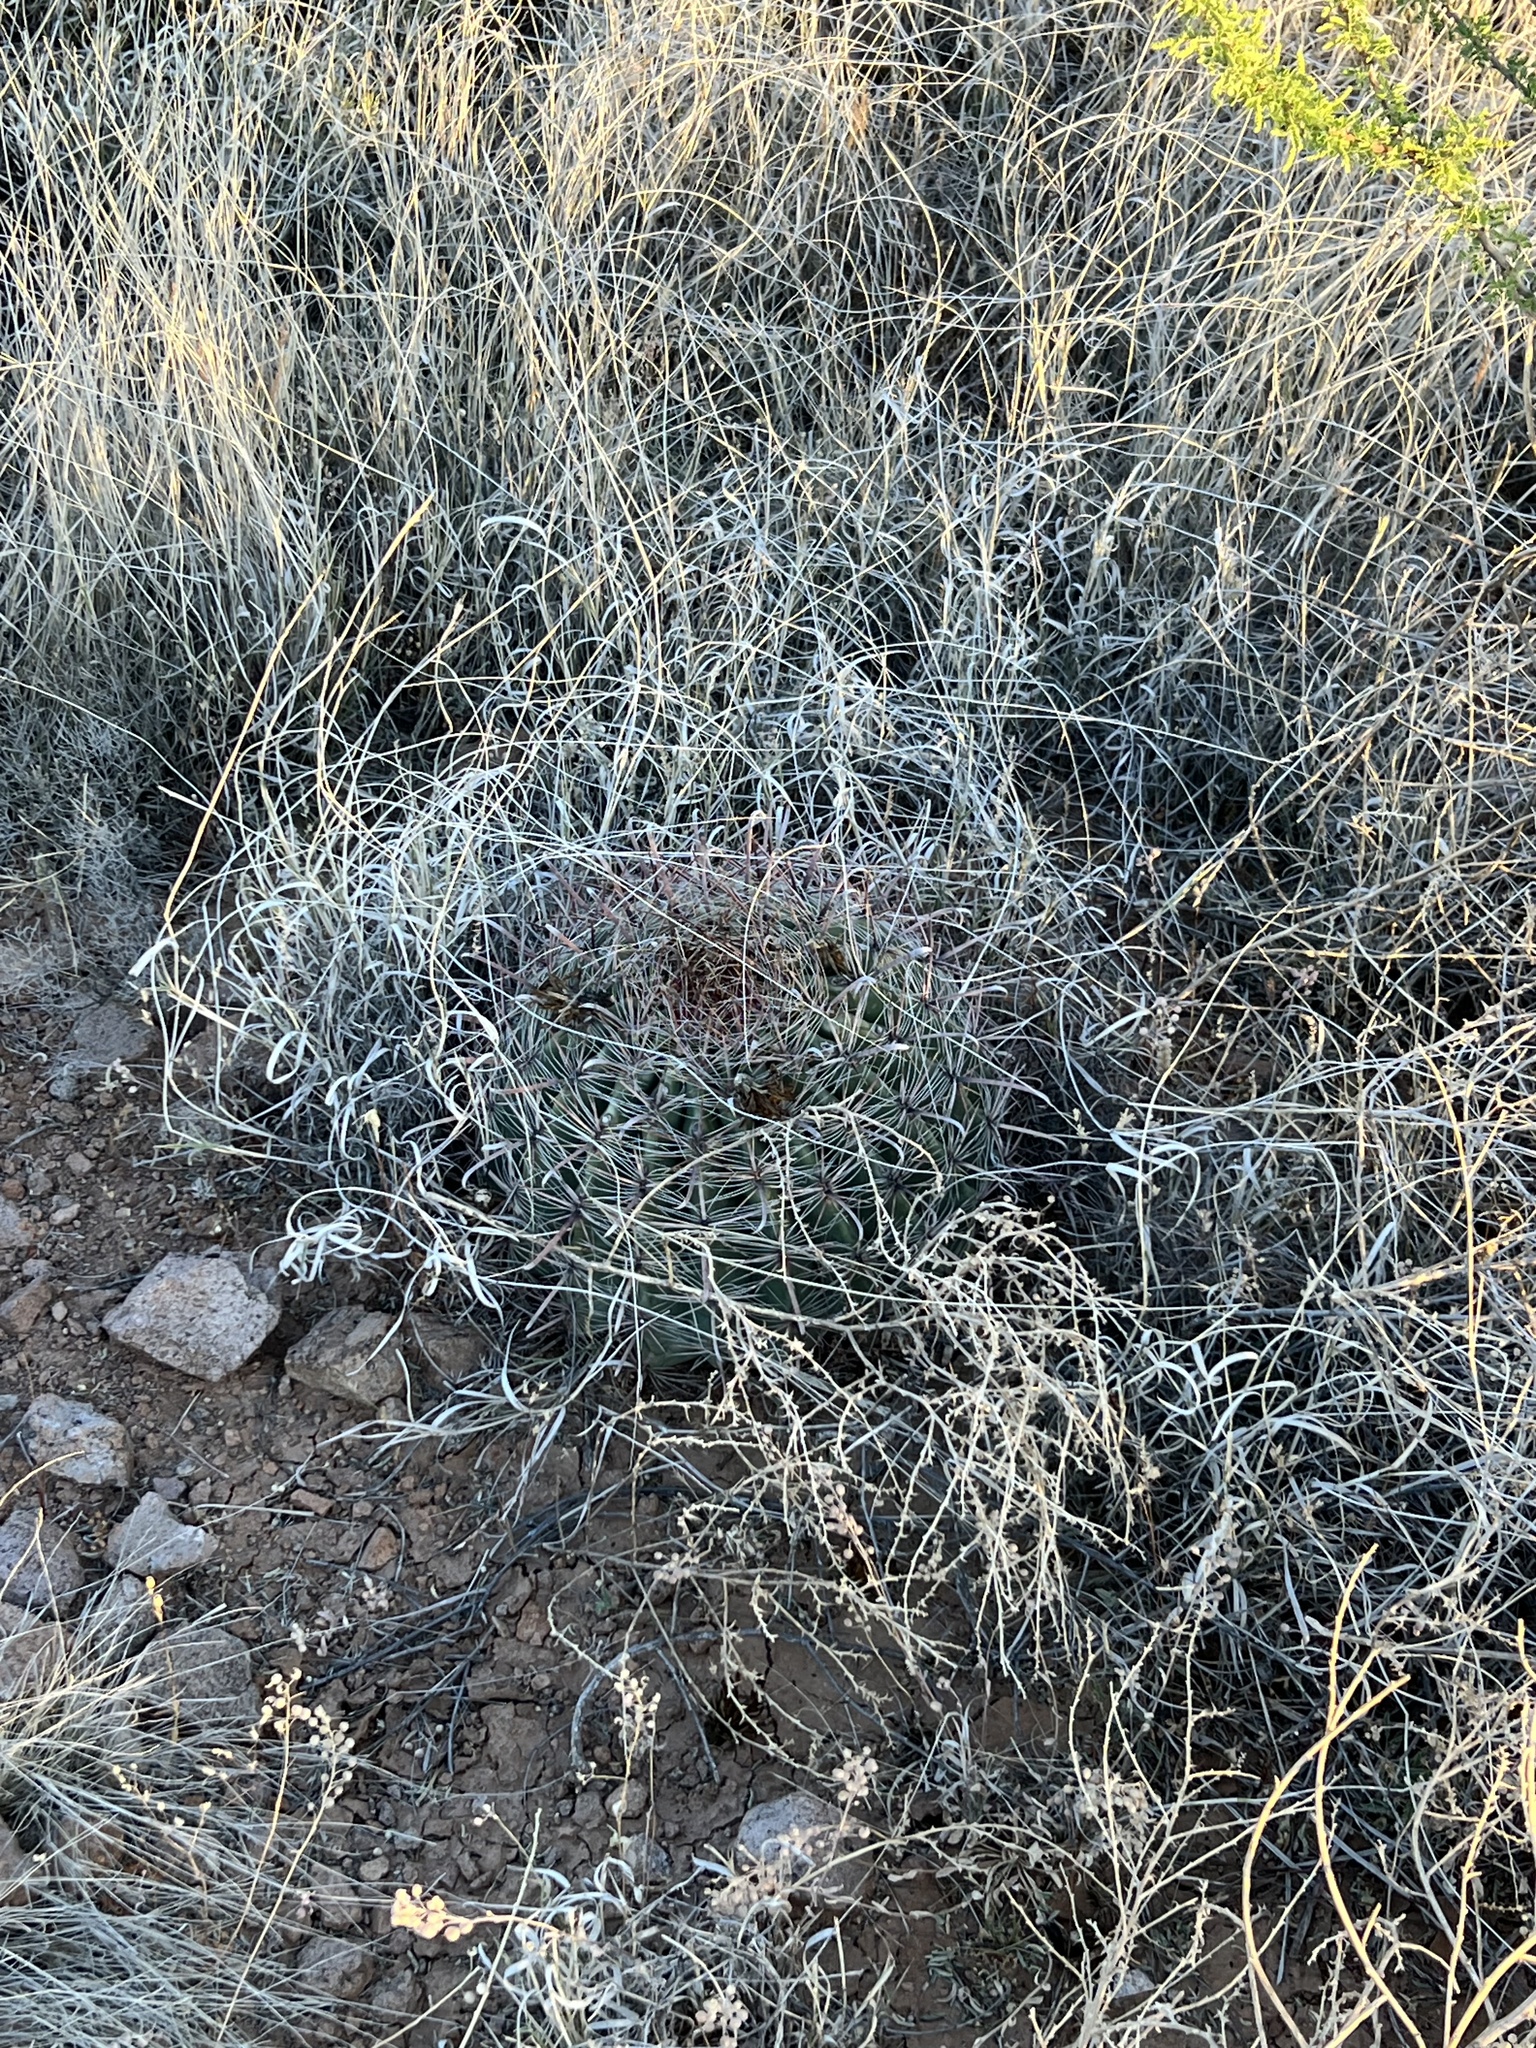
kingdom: Plantae
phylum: Tracheophyta
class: Magnoliopsida
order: Caryophyllales
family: Cactaceae
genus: Ferocactus
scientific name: Ferocactus wislizeni
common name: Candy barrel cactus
